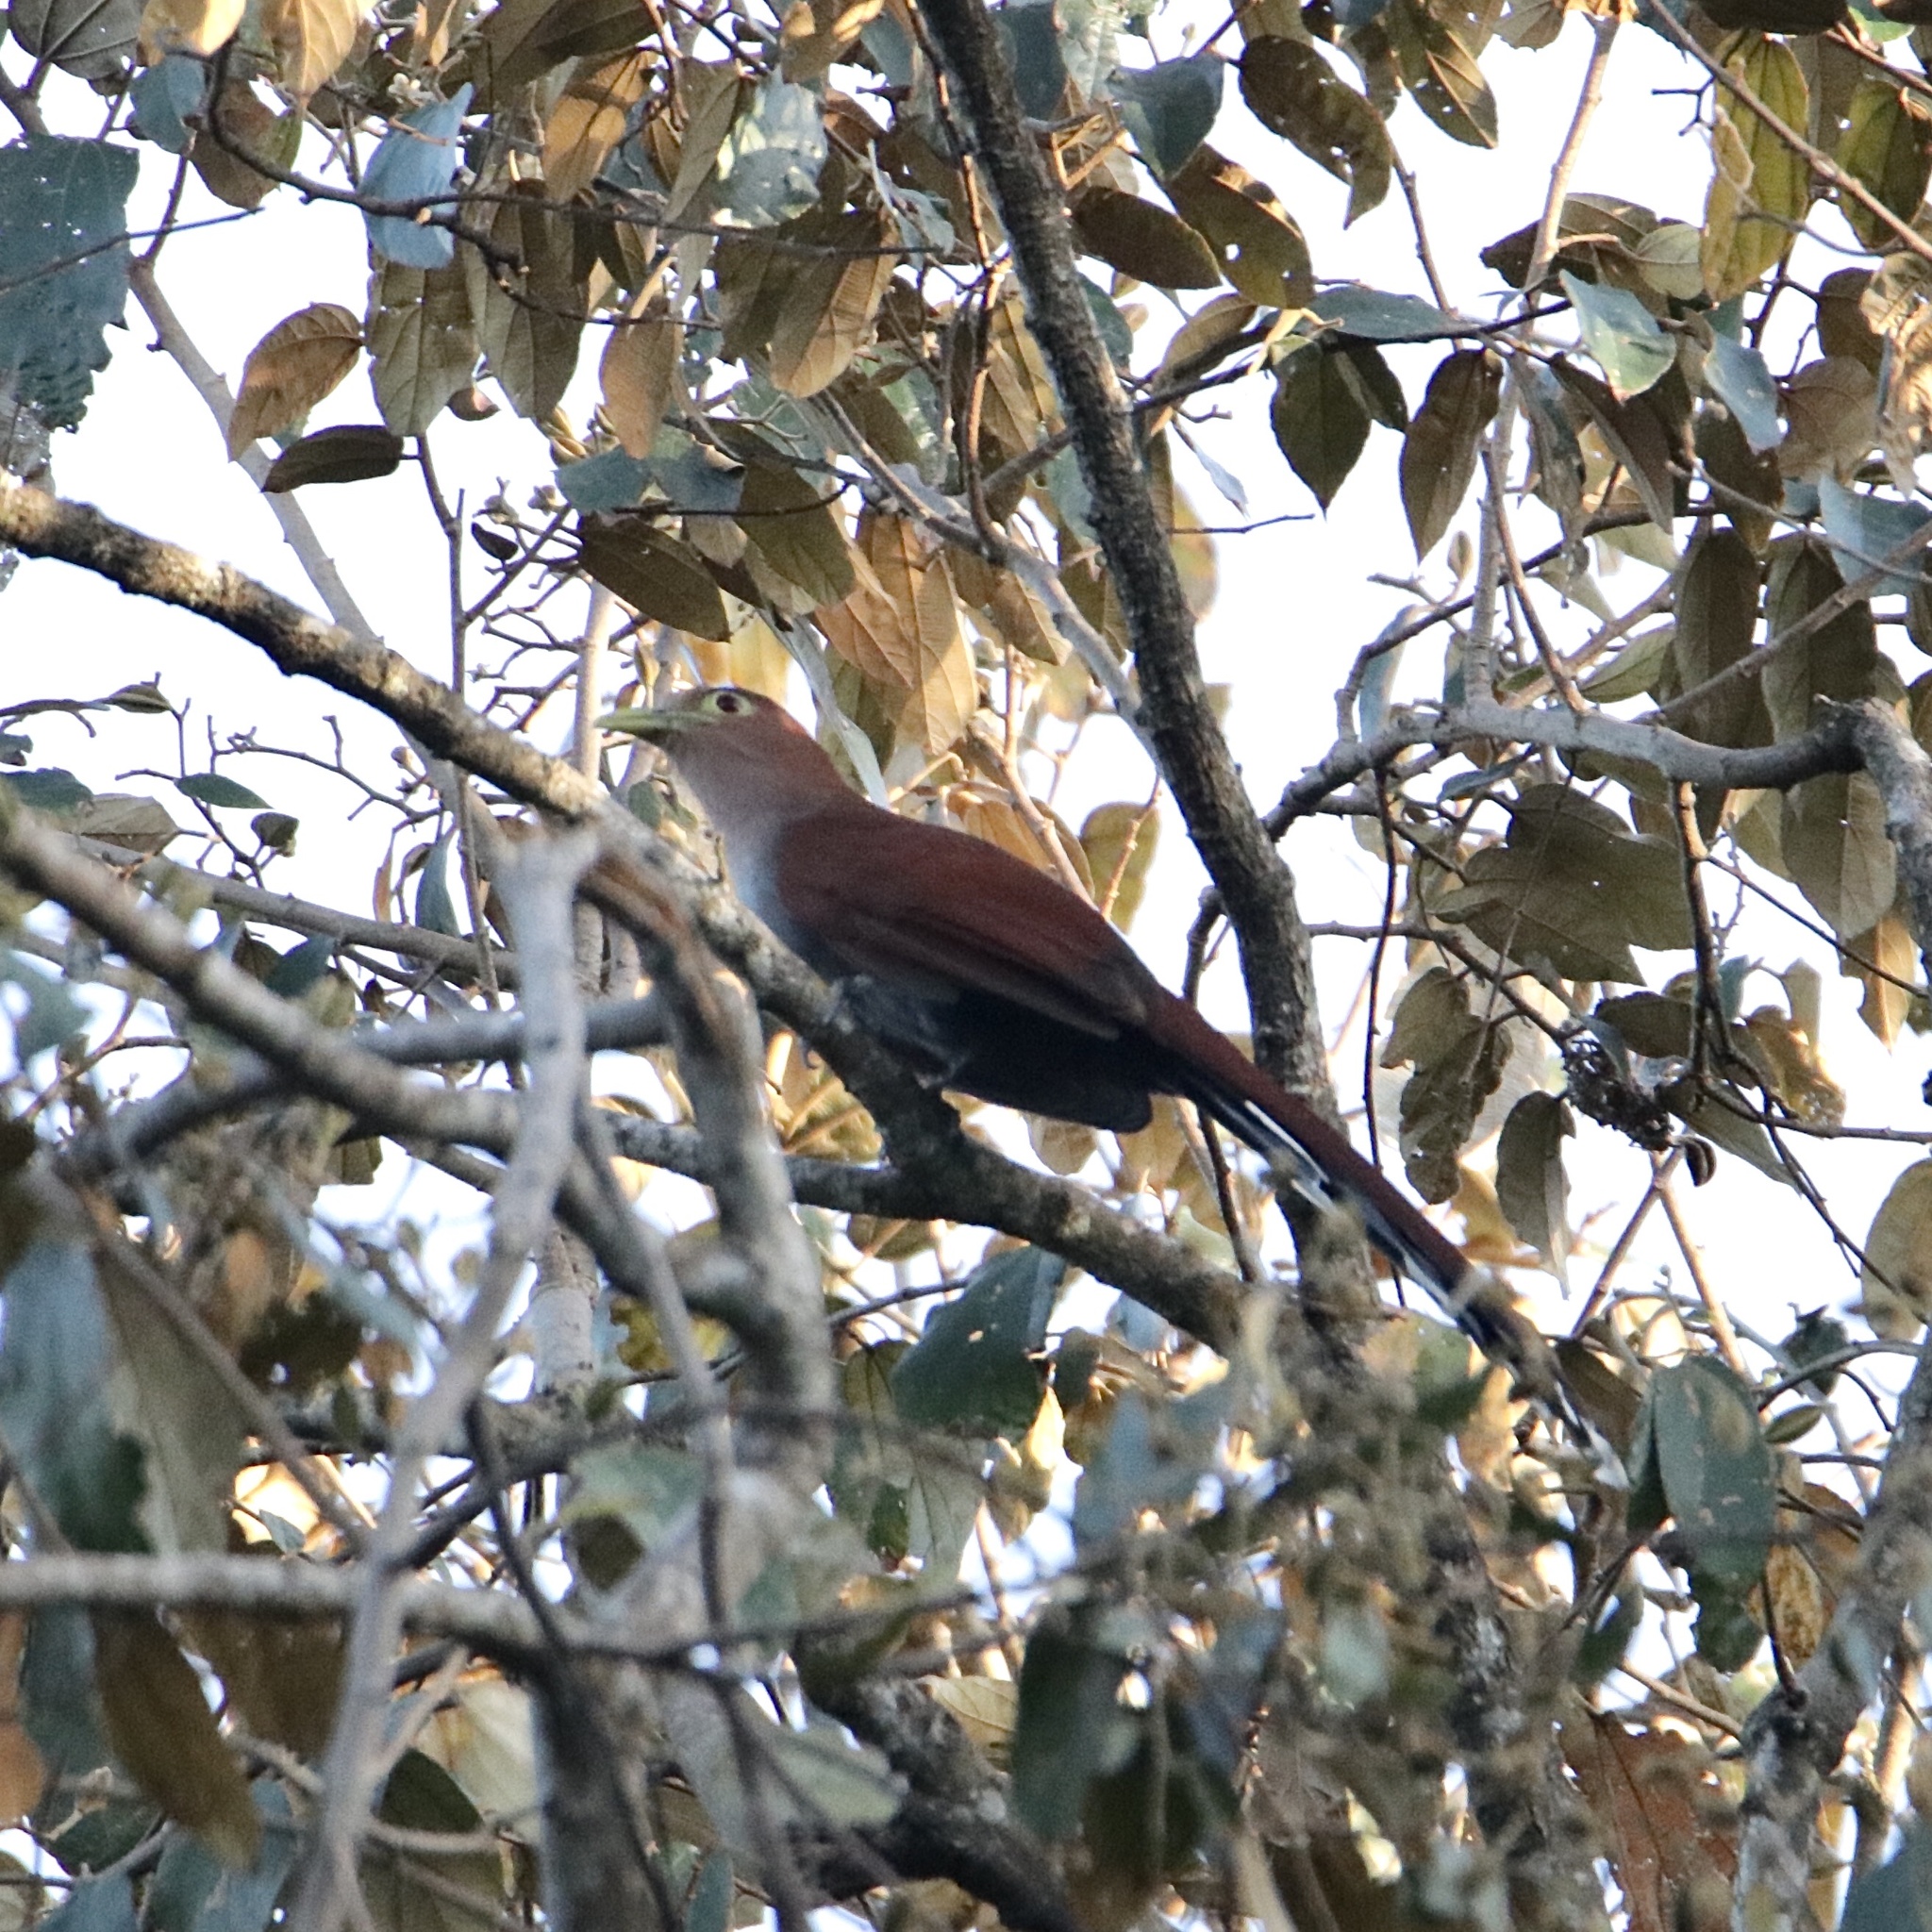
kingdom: Animalia
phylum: Chordata
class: Aves
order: Cuculiformes
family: Cuculidae
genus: Piaya
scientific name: Piaya cayana
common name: Squirrel cuckoo
